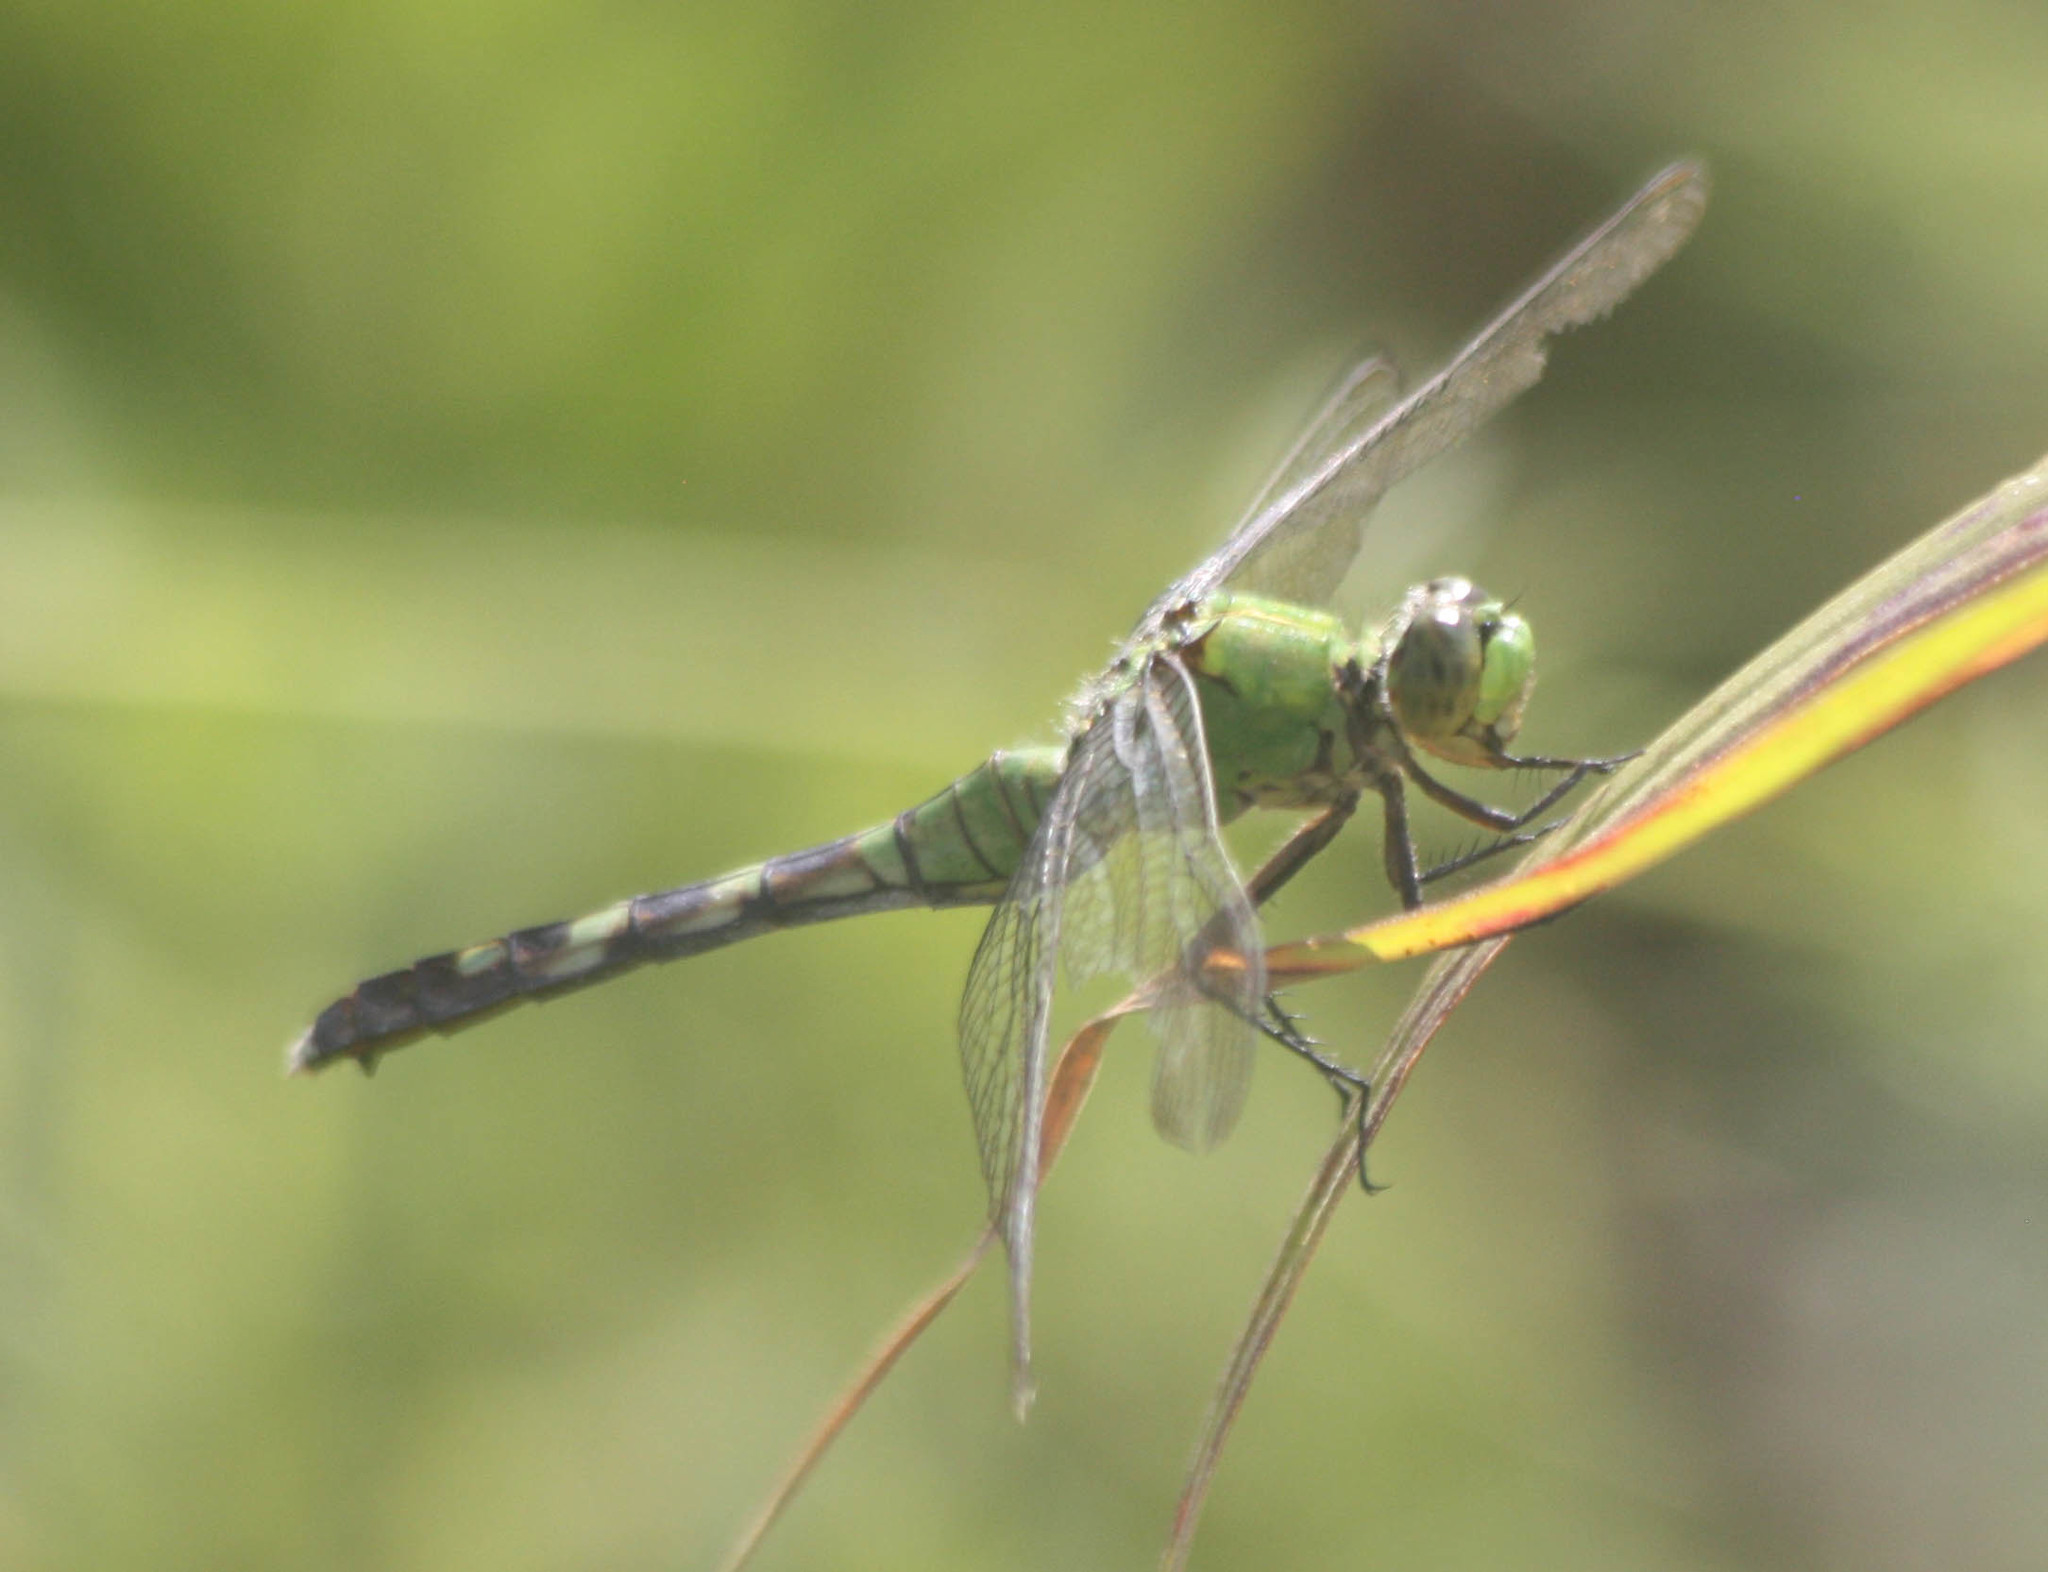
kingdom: Animalia
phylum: Arthropoda
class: Insecta
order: Odonata
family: Libellulidae
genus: Erythemis
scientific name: Erythemis simplicicollis
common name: Eastern pondhawk
